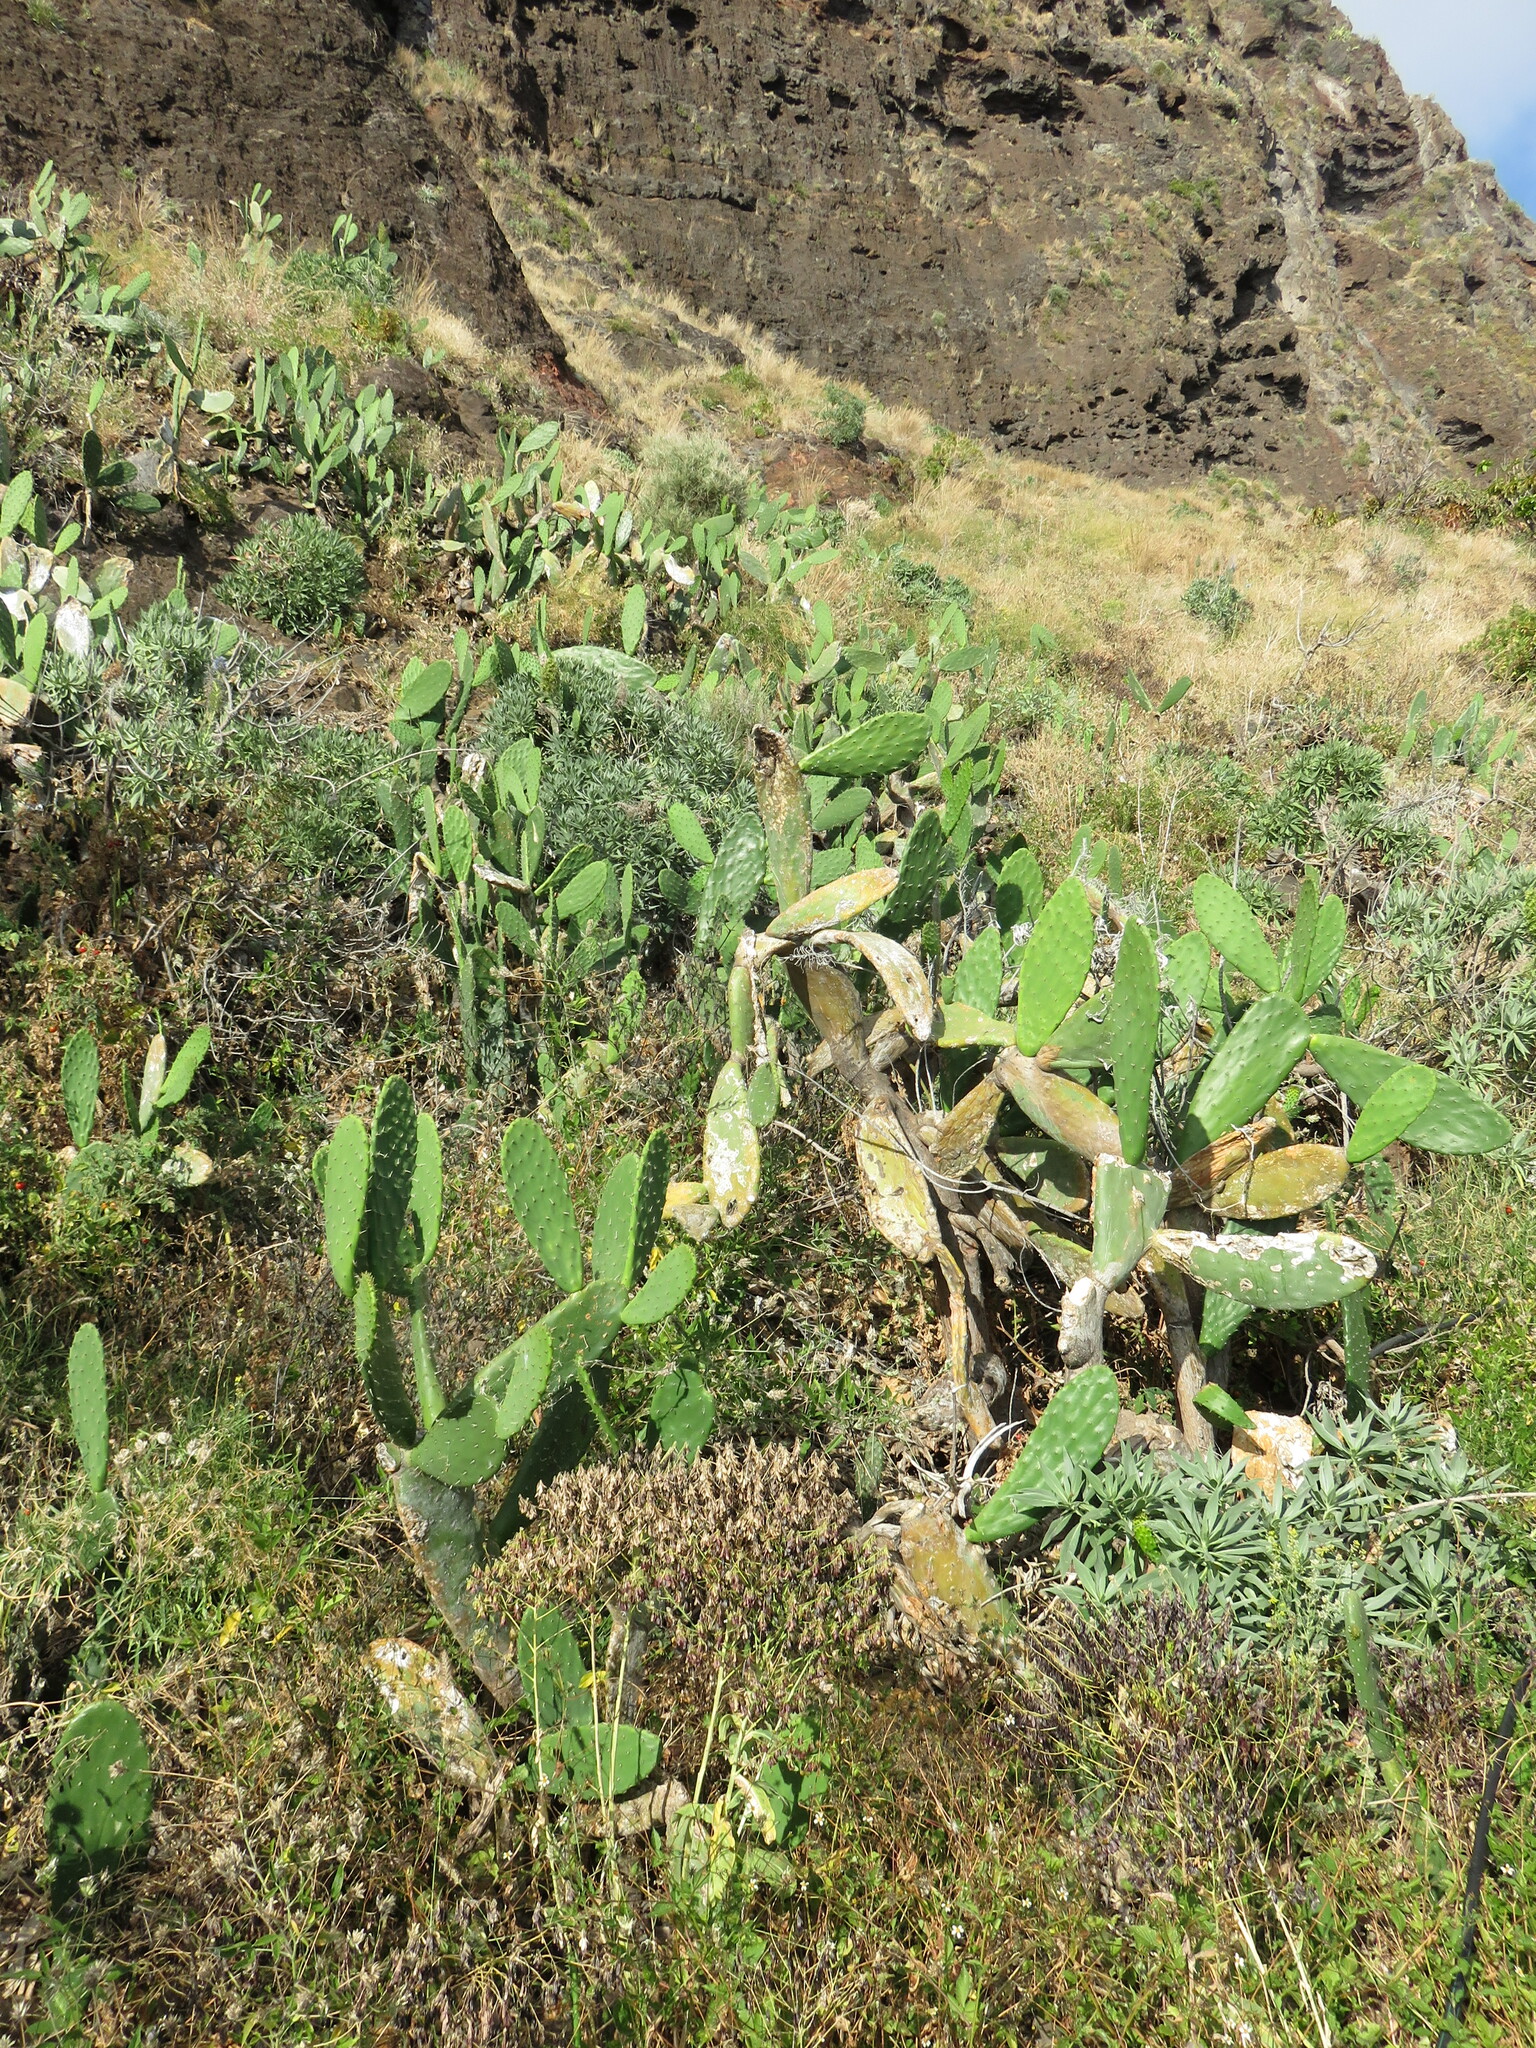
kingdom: Plantae
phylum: Tracheophyta
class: Magnoliopsida
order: Caryophyllales
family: Cactaceae
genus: Opuntia
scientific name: Opuntia ficus-indica
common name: Barbary fig
